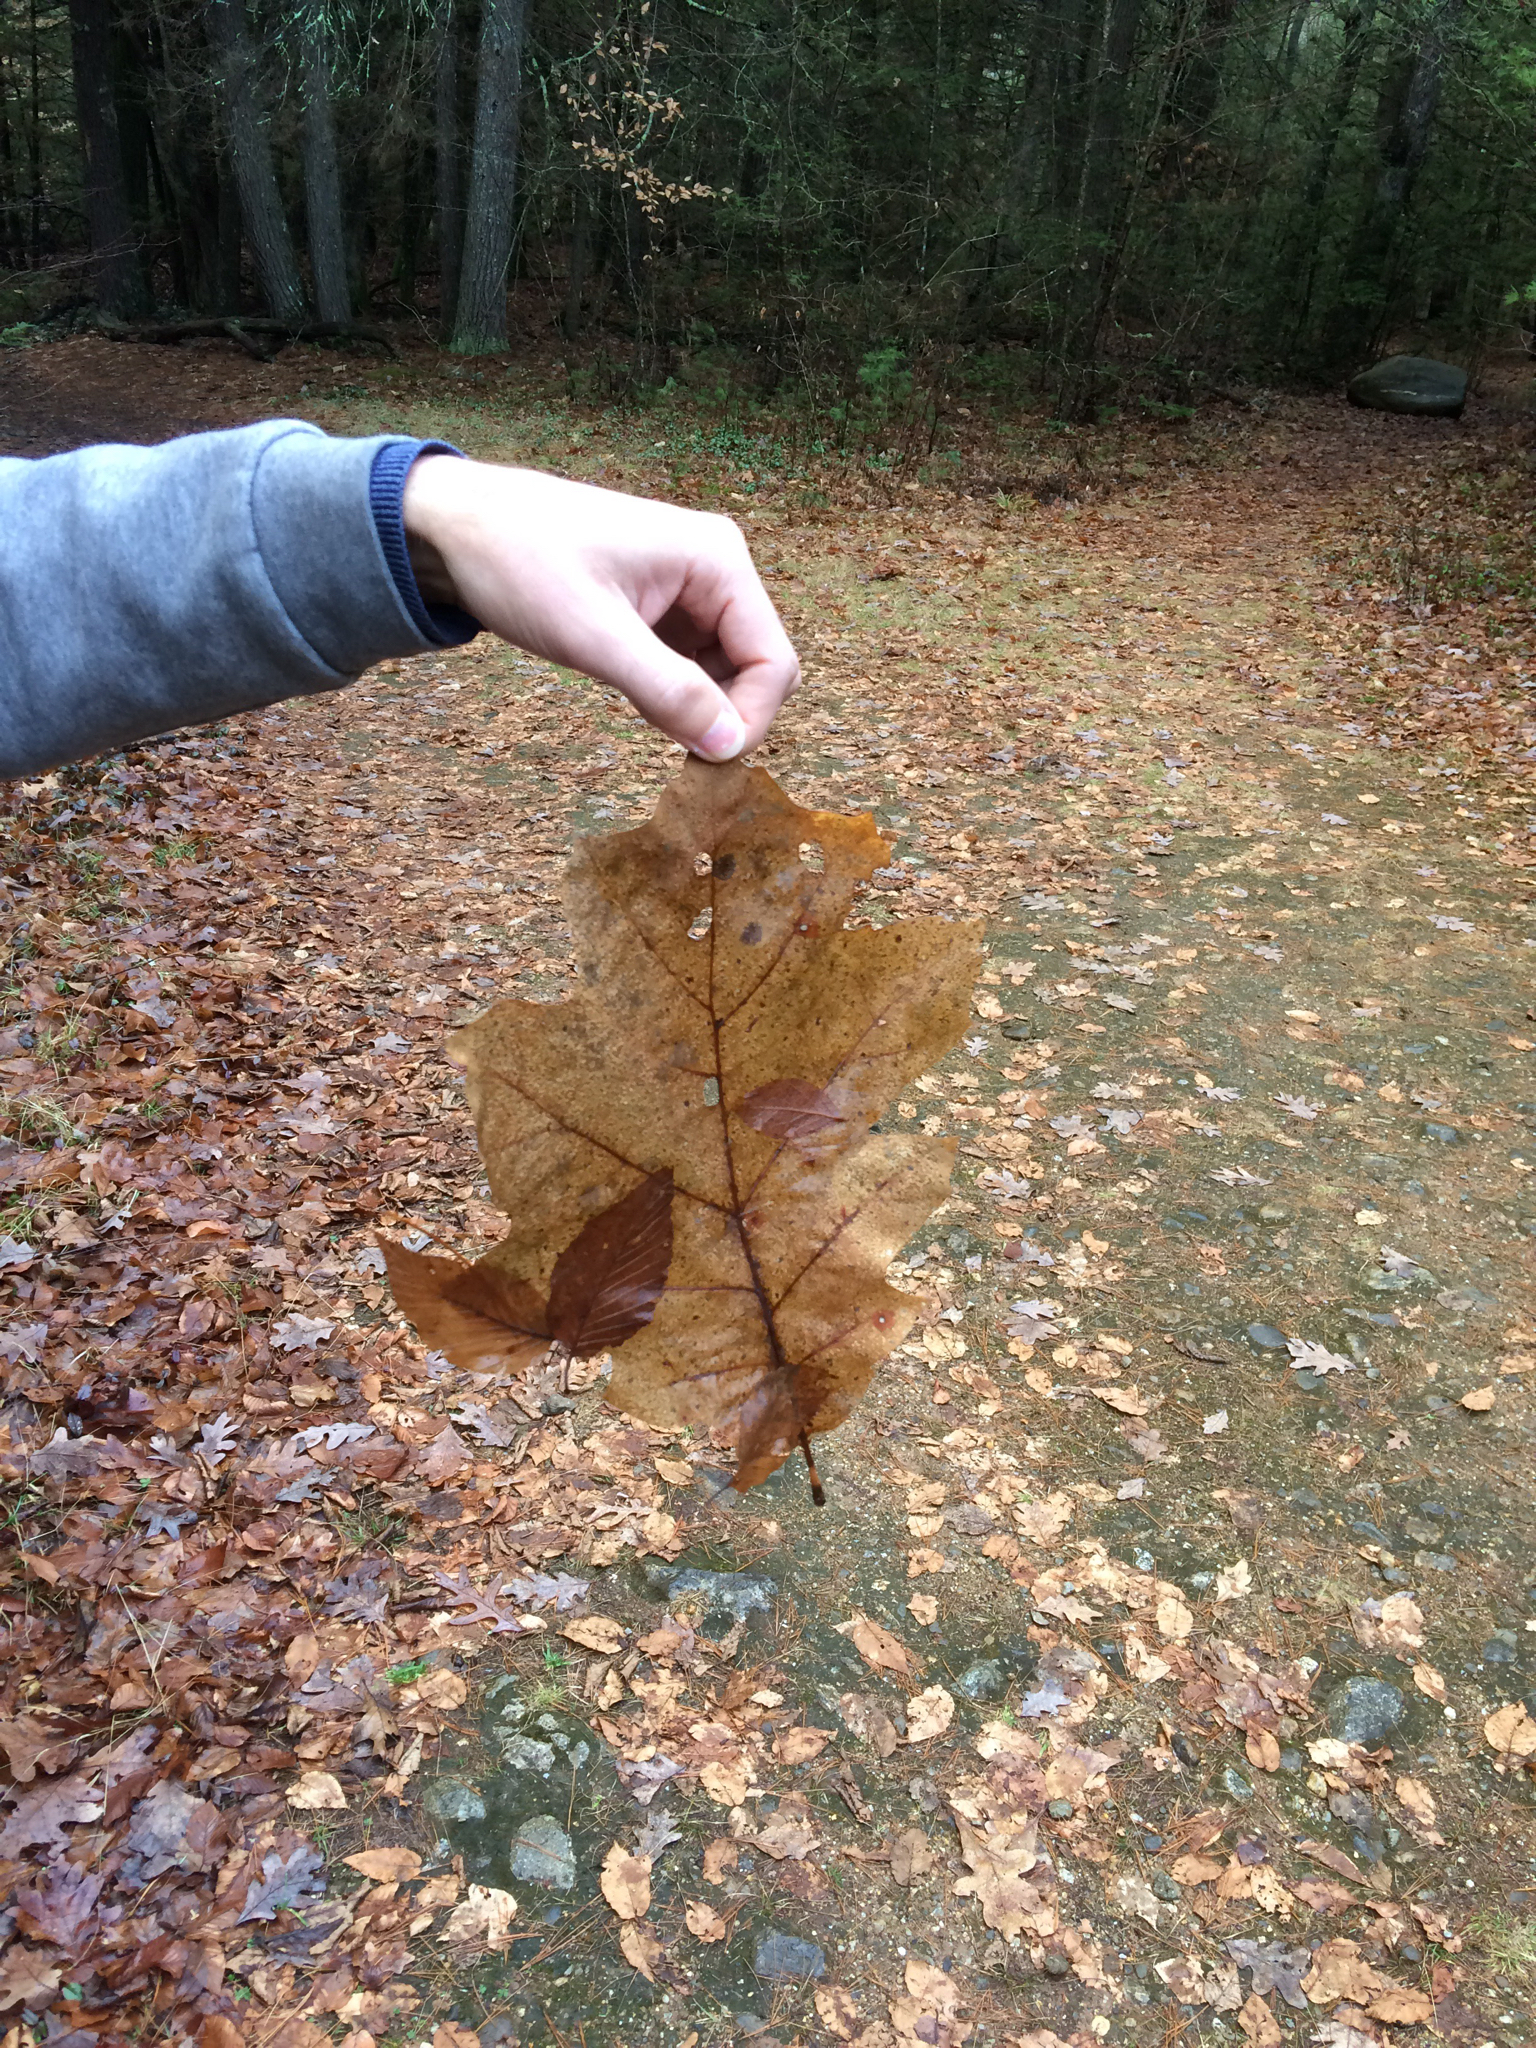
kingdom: Plantae
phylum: Tracheophyta
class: Magnoliopsida
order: Fagales
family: Fagaceae
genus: Quercus
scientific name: Quercus rubra
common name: Red oak
